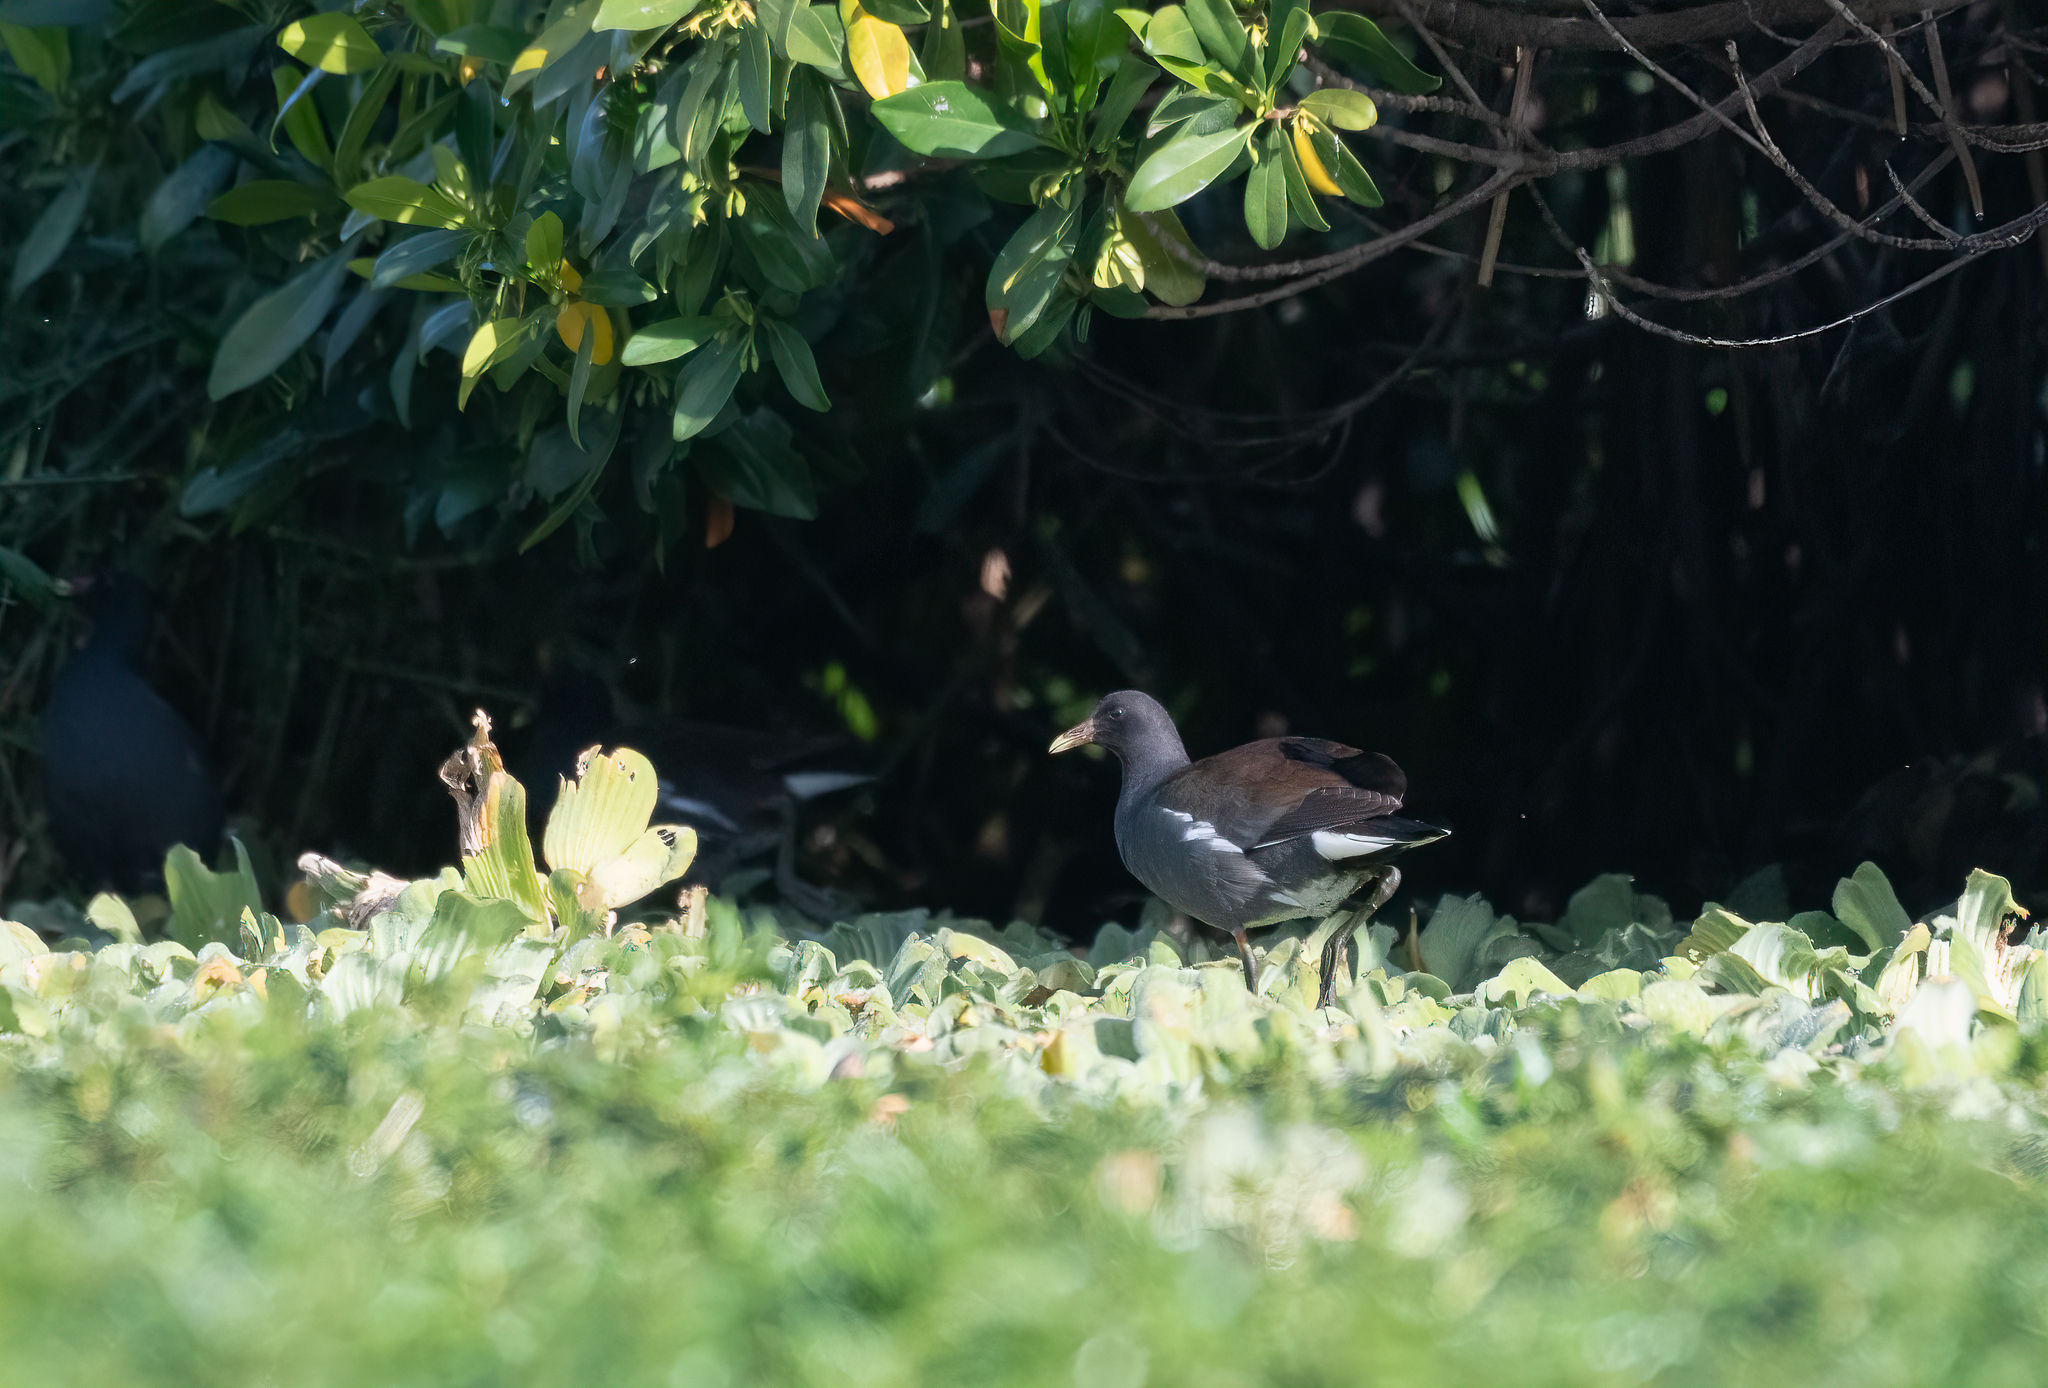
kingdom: Animalia
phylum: Chordata
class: Aves
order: Gruiformes
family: Rallidae
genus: Gallinula
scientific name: Gallinula chloropus
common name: Common moorhen
